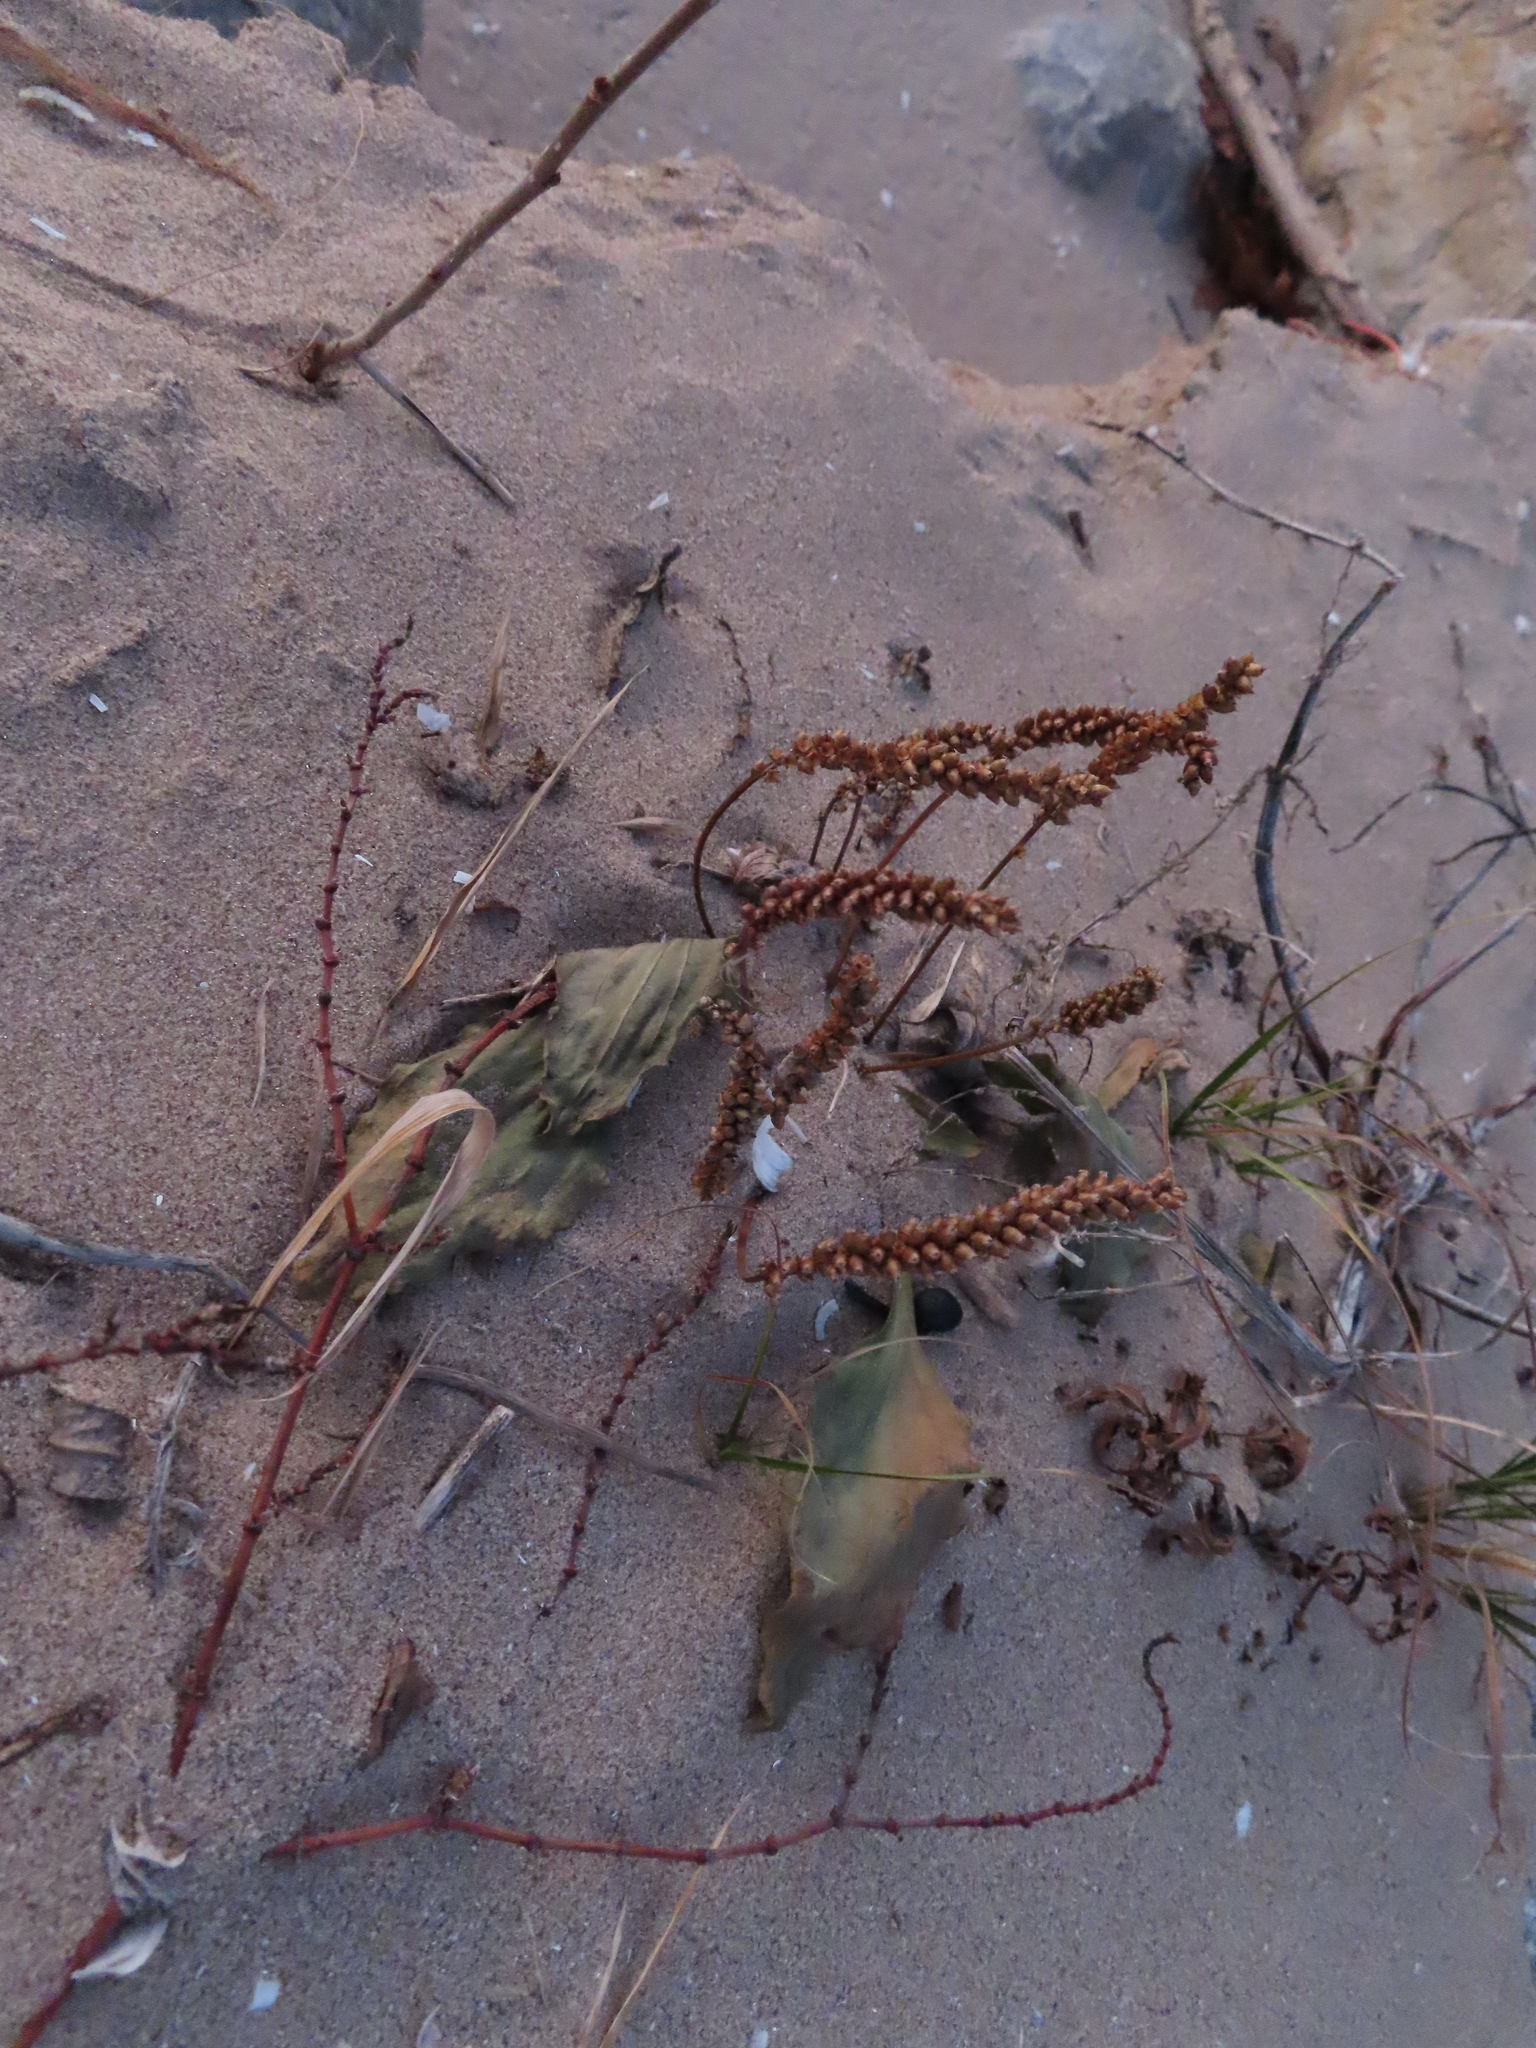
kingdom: Plantae
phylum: Tracheophyta
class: Magnoliopsida
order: Lamiales
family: Plantaginaceae
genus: Plantago
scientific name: Plantago major
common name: Common plantain
